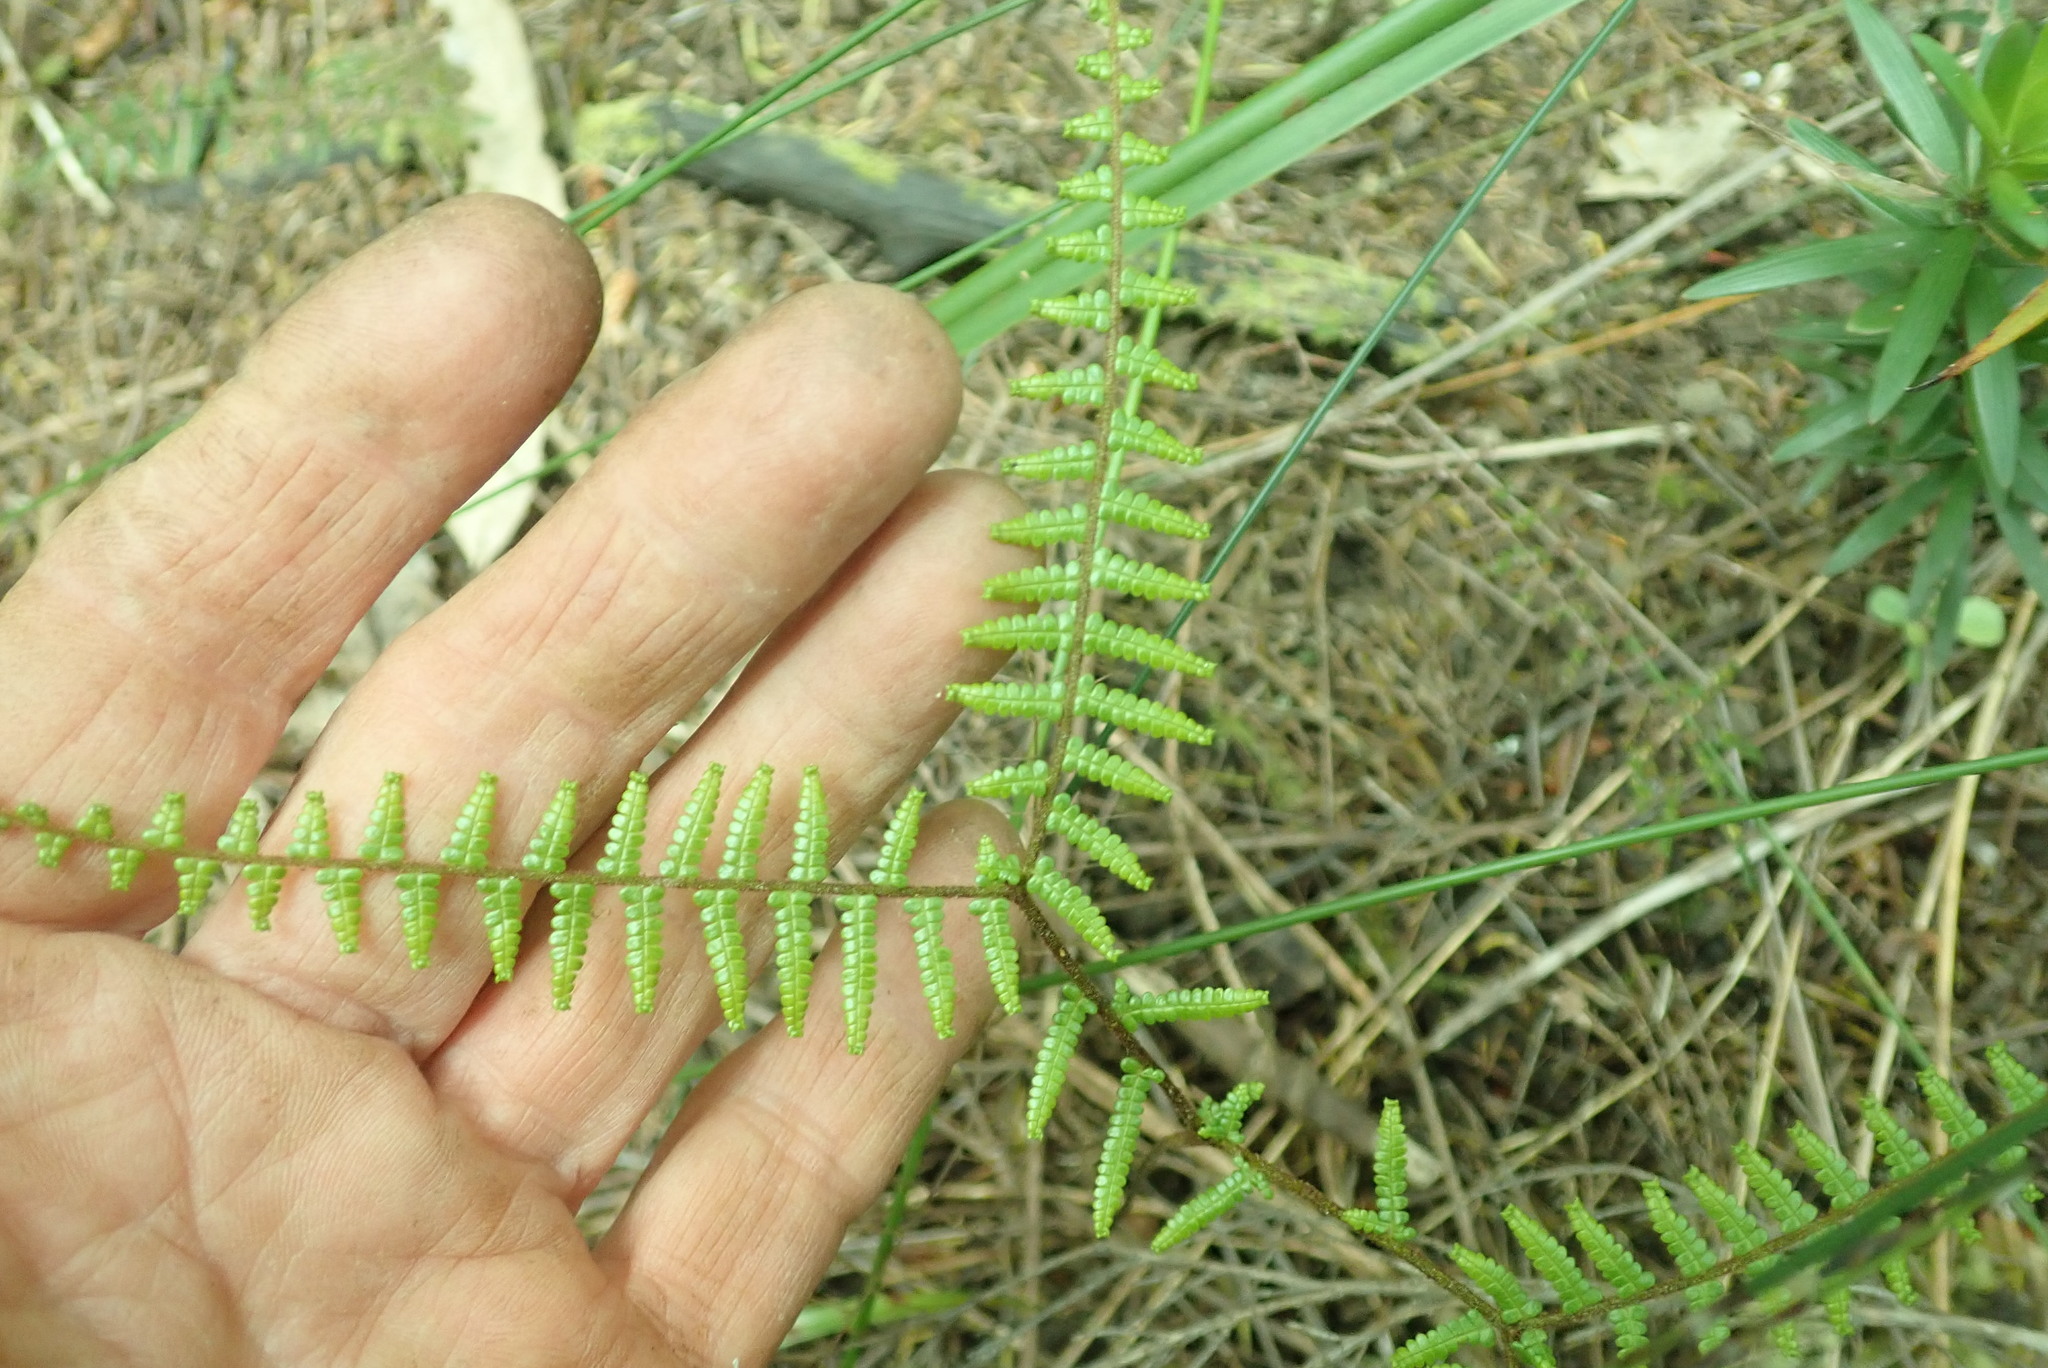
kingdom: Plantae
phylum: Tracheophyta
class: Polypodiopsida
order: Gleicheniales
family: Gleicheniaceae
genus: Gleichenia
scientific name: Gleichenia microphylla
